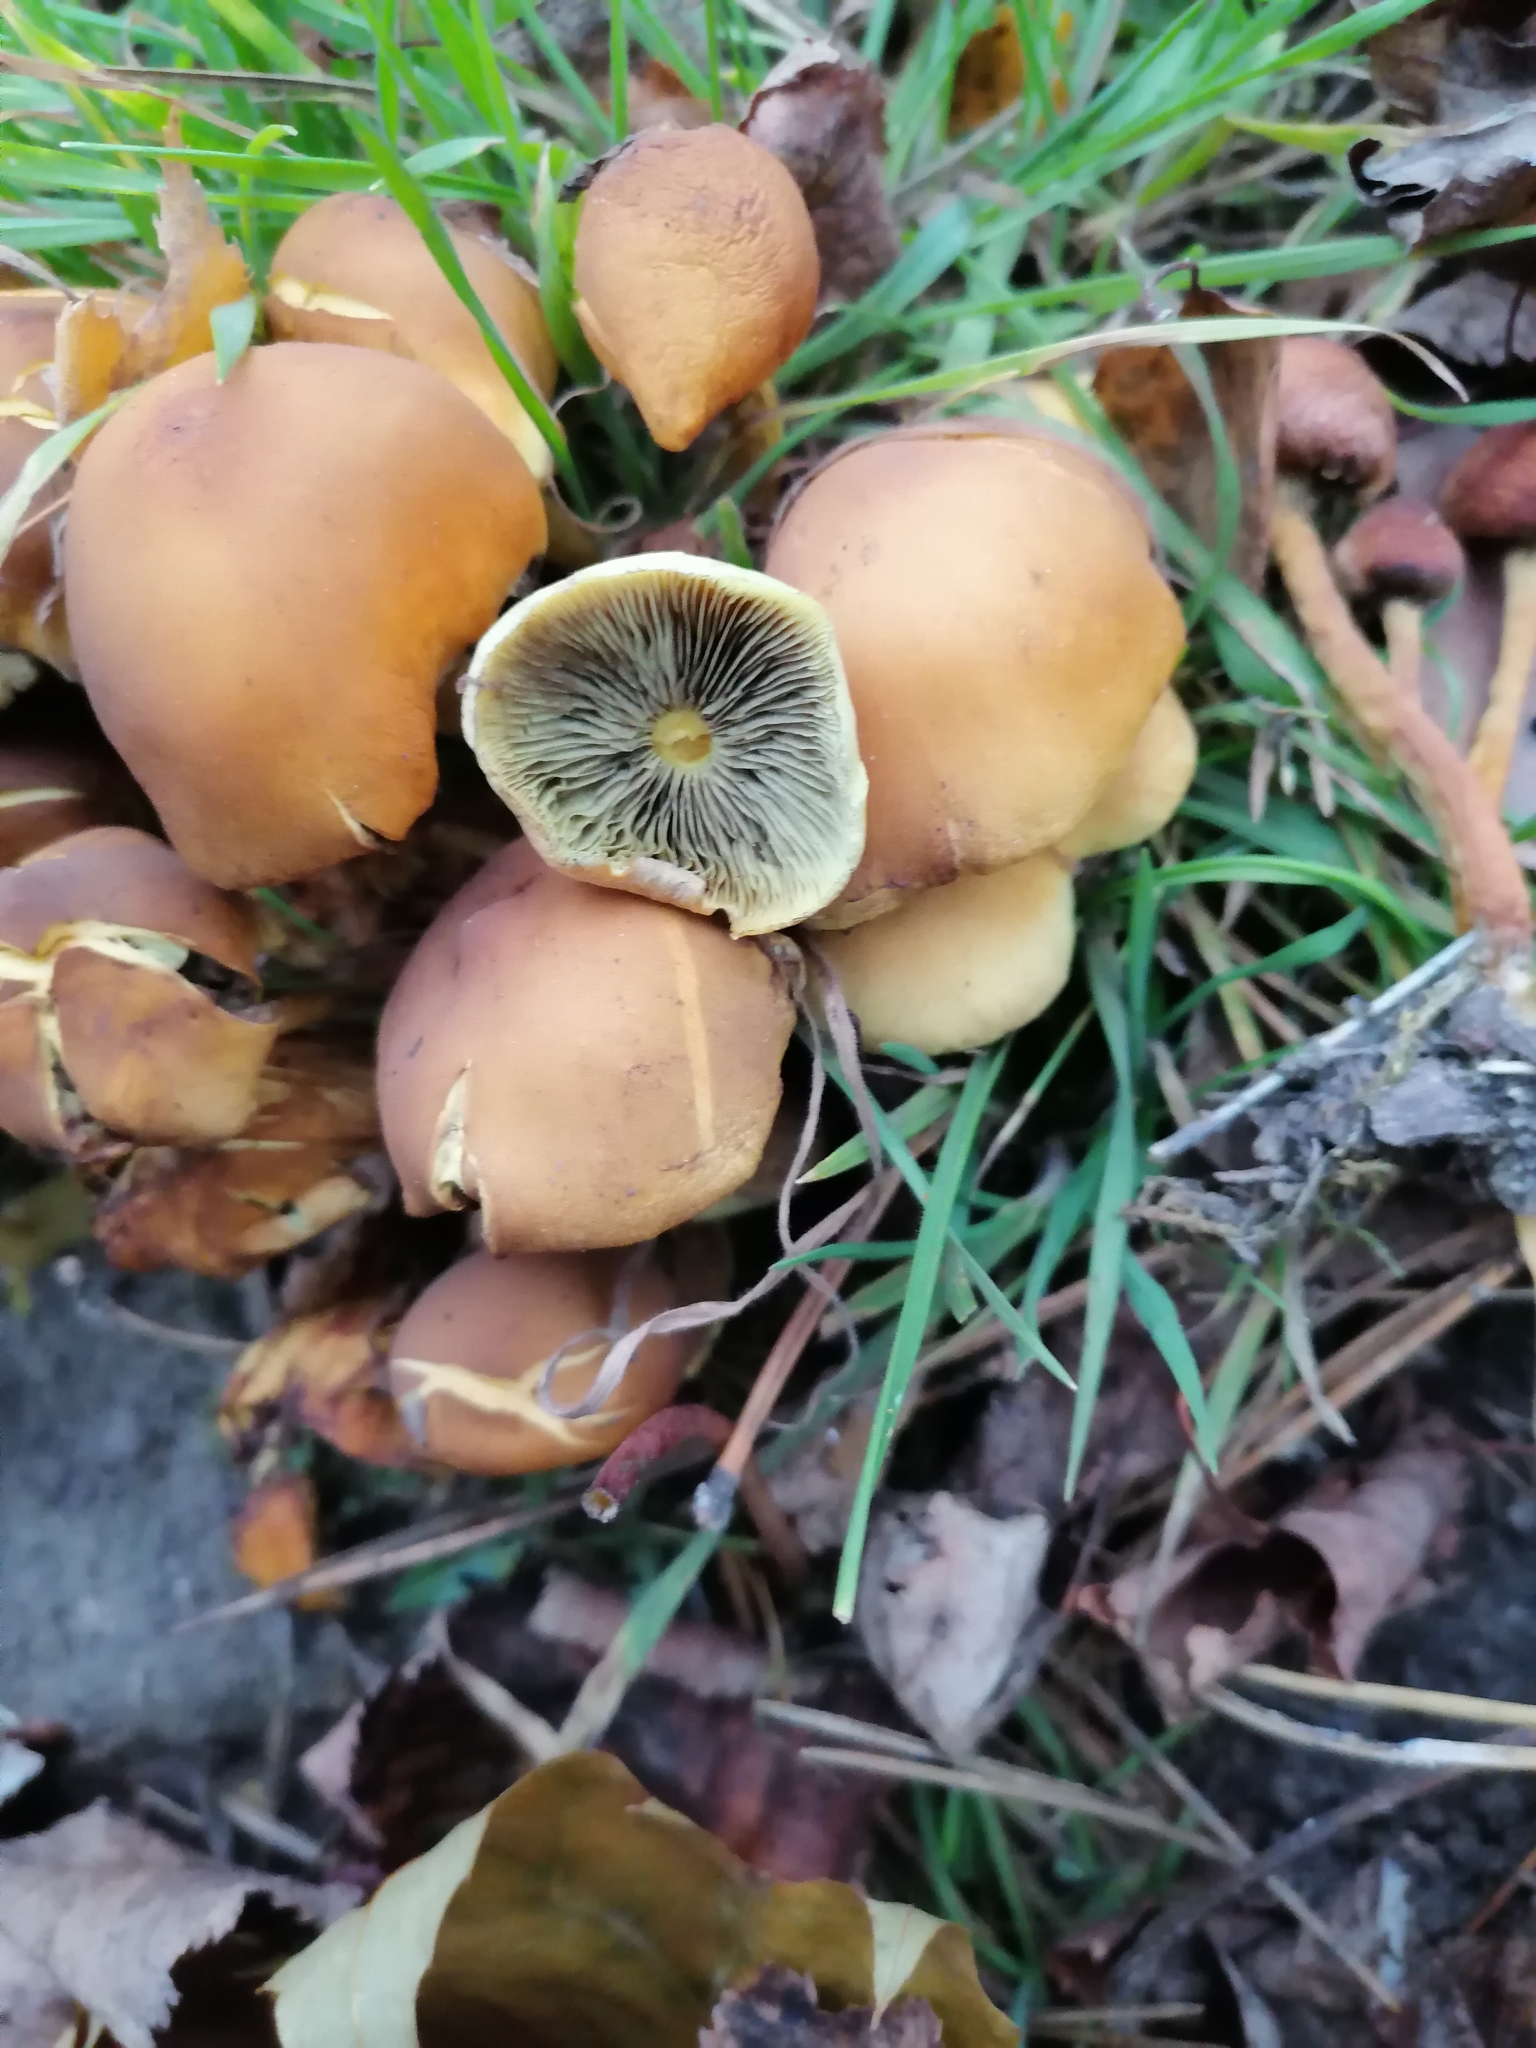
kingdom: Fungi
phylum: Basidiomycota
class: Agaricomycetes
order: Agaricales
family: Strophariaceae
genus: Hypholoma
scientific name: Hypholoma fasciculare
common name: Sulphur tuft
